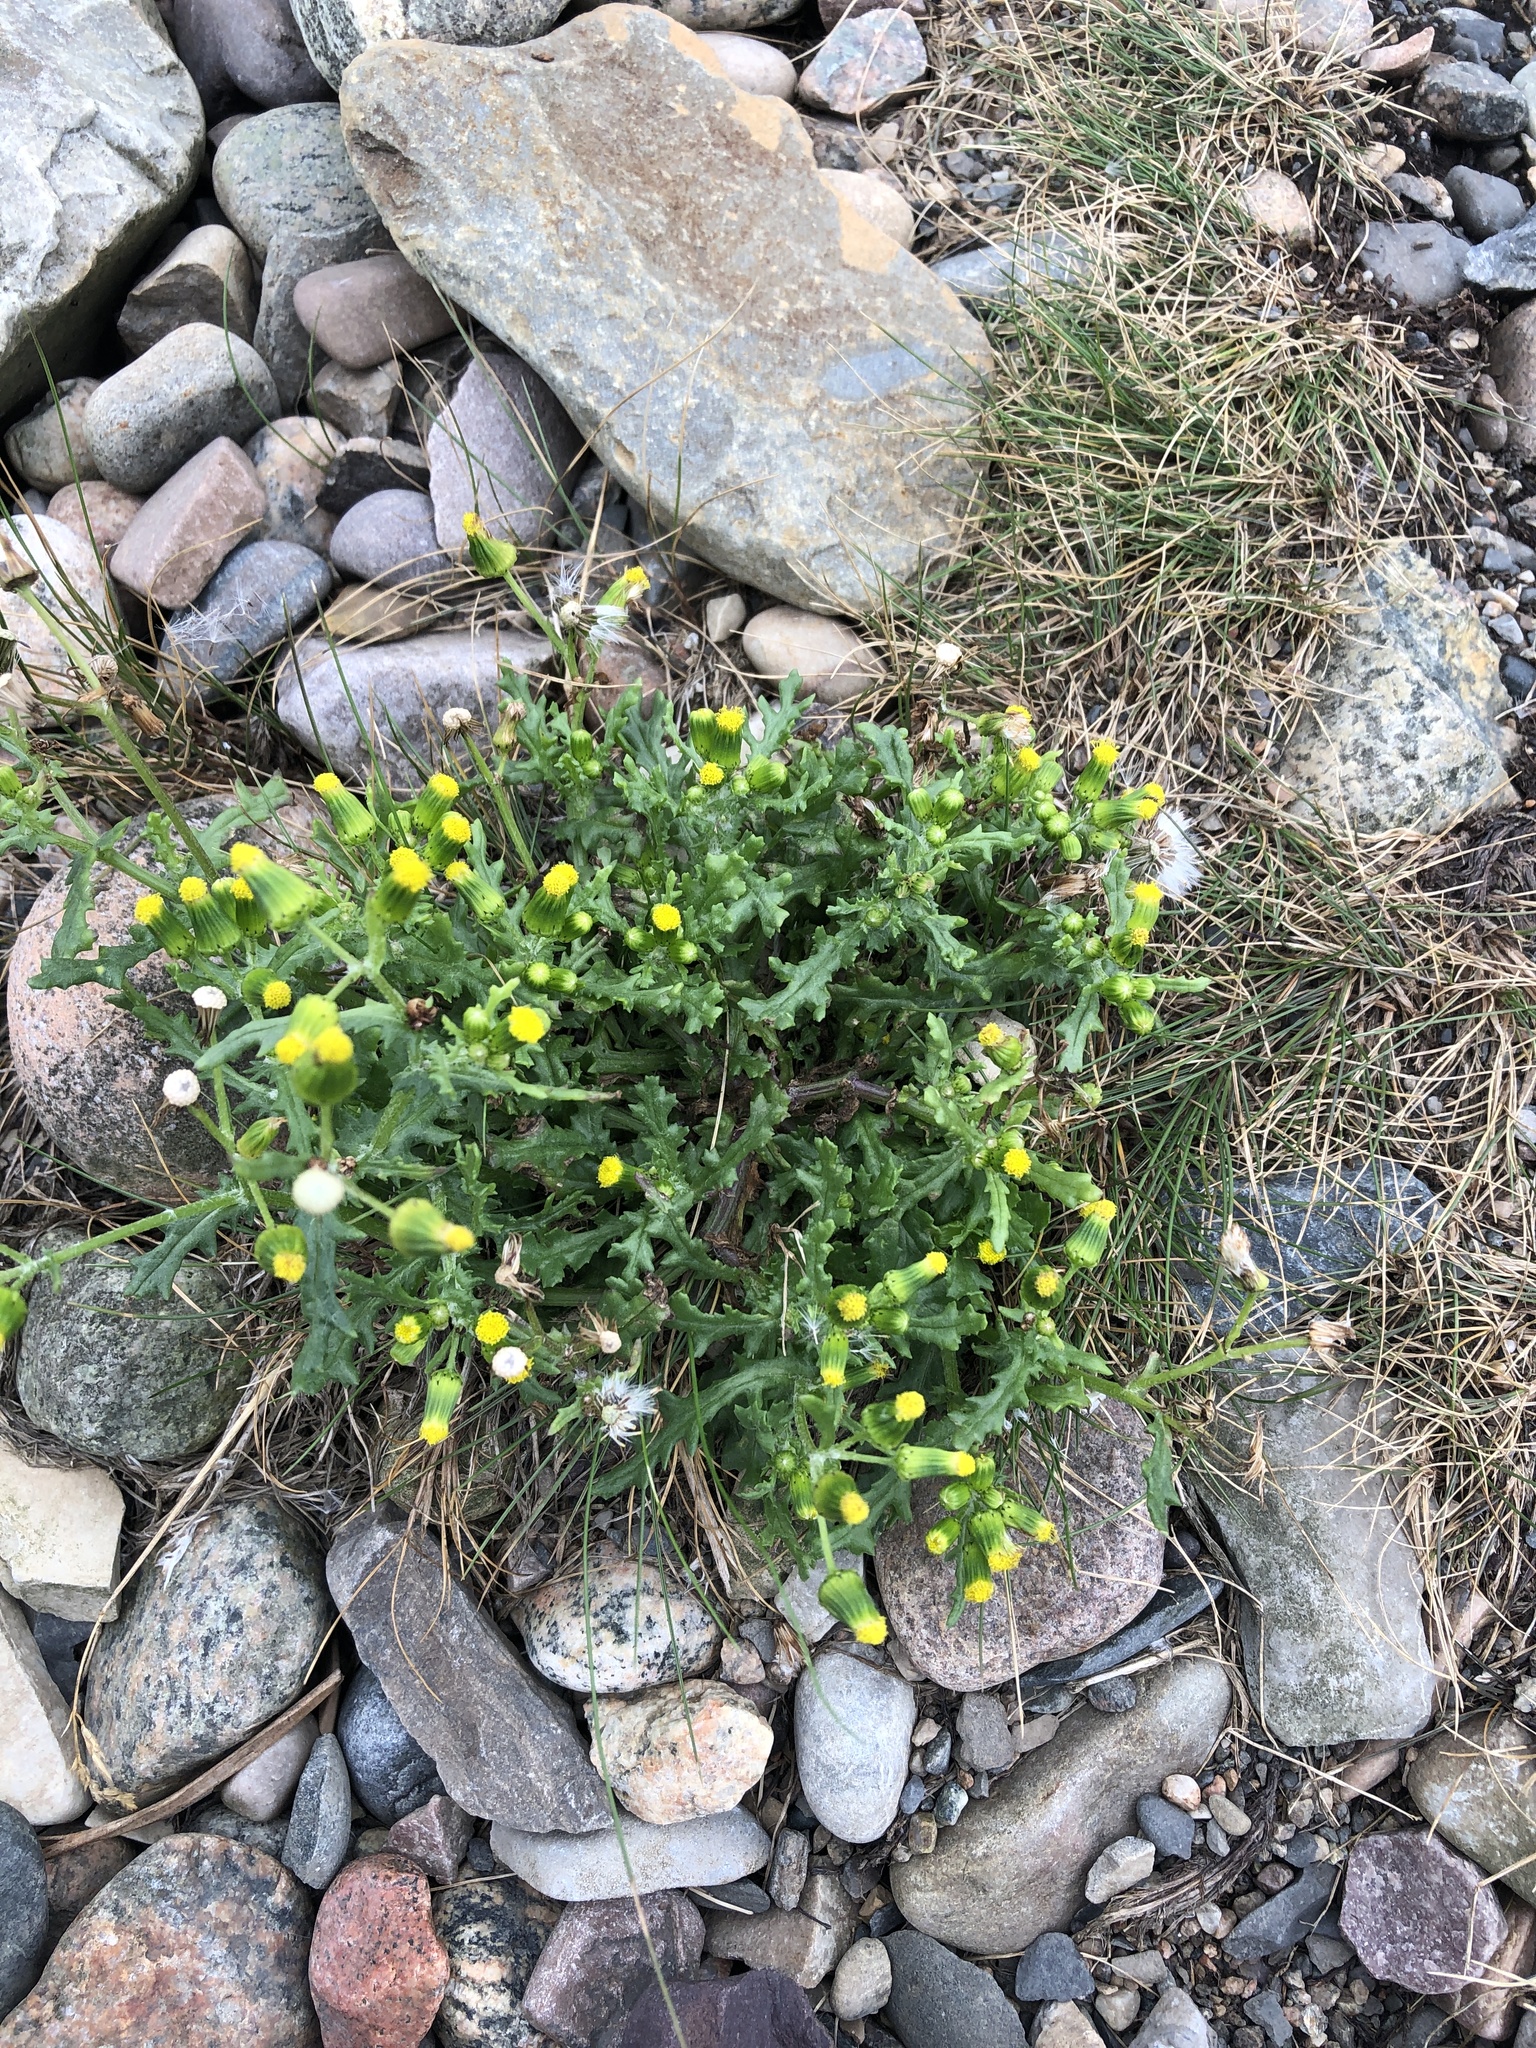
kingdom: Plantae
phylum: Tracheophyta
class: Magnoliopsida
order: Asterales
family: Asteraceae
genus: Senecio
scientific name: Senecio vulgaris
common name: Old-man-in-the-spring
